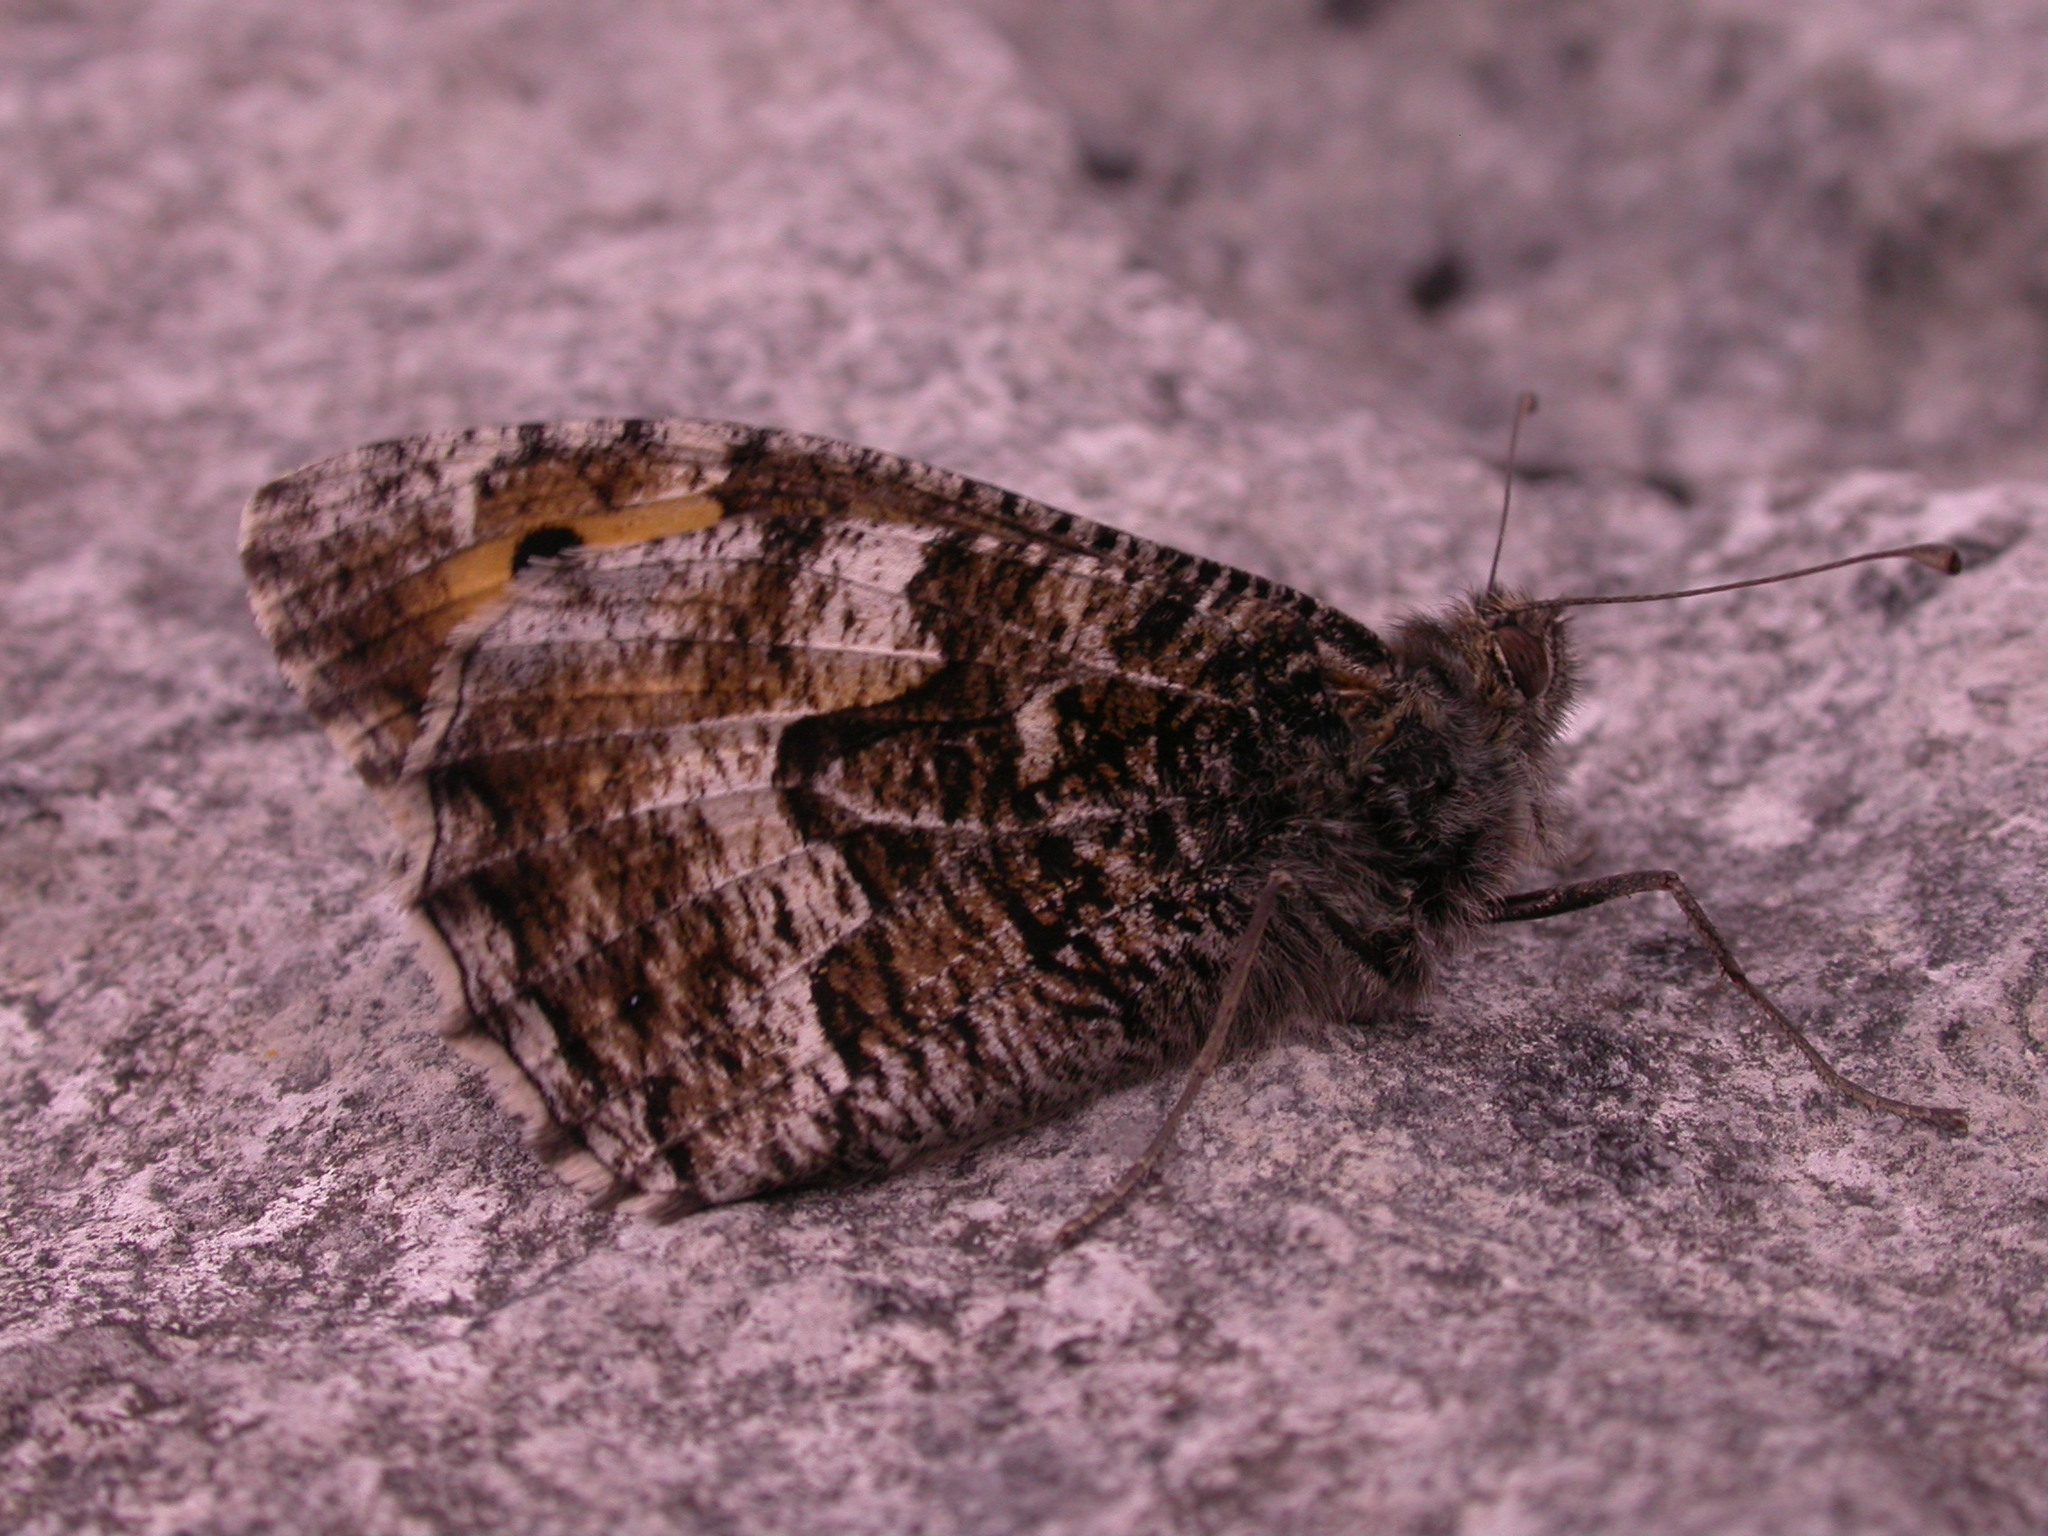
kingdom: Animalia
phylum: Arthropoda
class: Insecta
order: Lepidoptera
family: Nymphalidae
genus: Hipparchia
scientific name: Hipparchia semele
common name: Grayling
